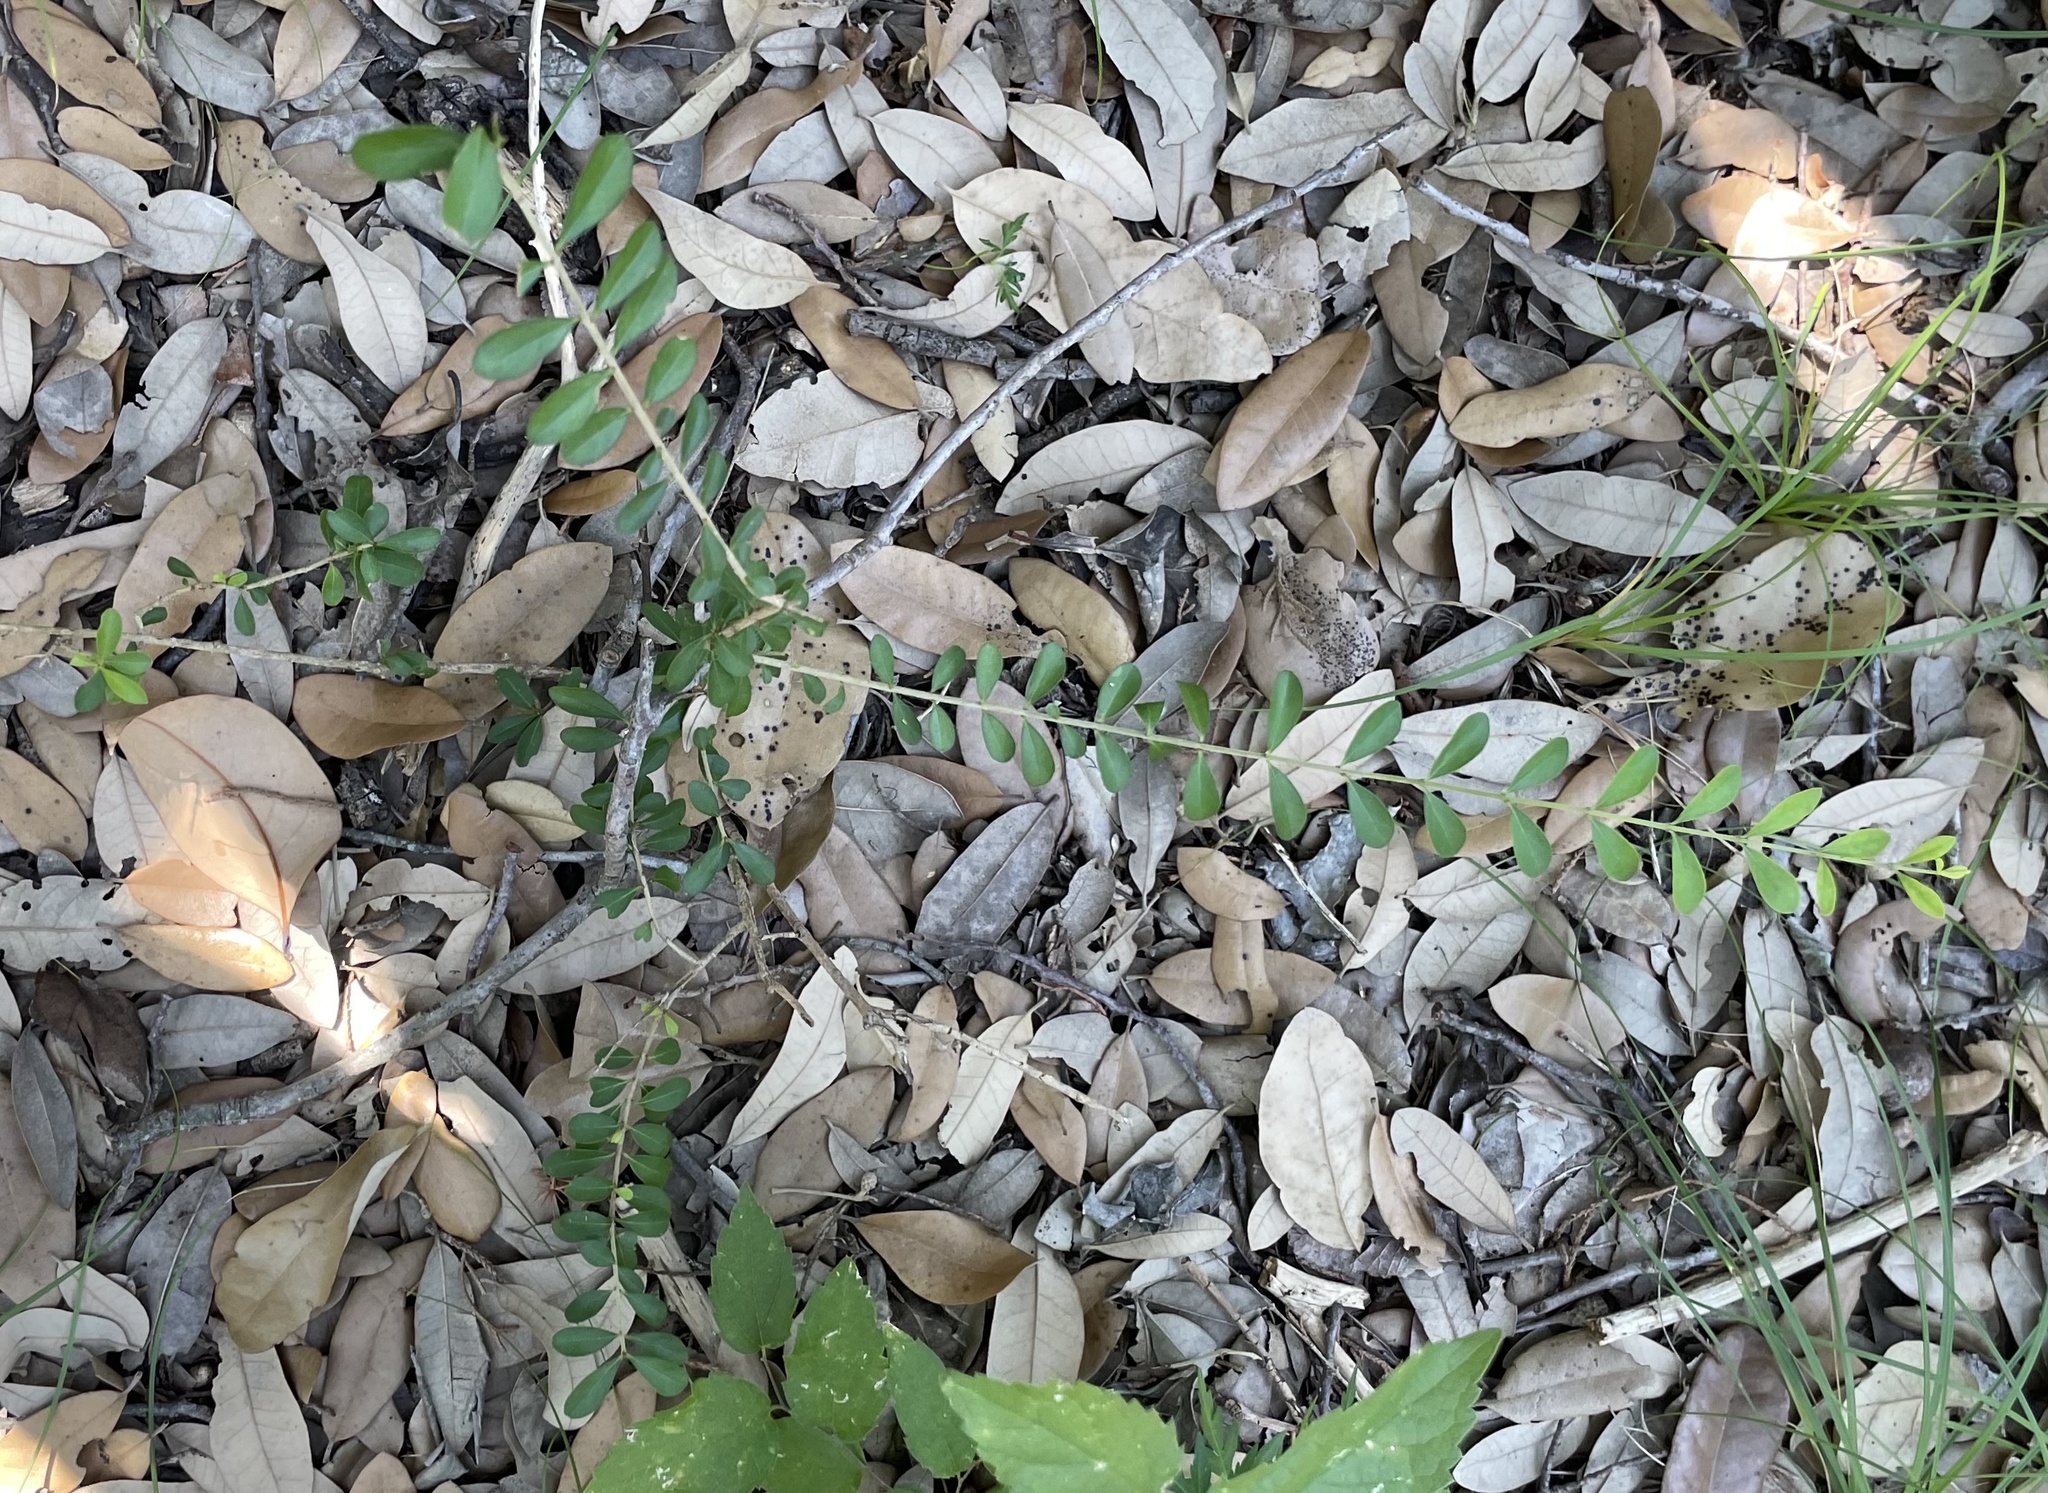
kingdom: Plantae
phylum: Tracheophyta
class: Magnoliopsida
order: Lamiales
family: Oleaceae
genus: Ligustrum
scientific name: Ligustrum quihoui
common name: Waxyleaf privet
